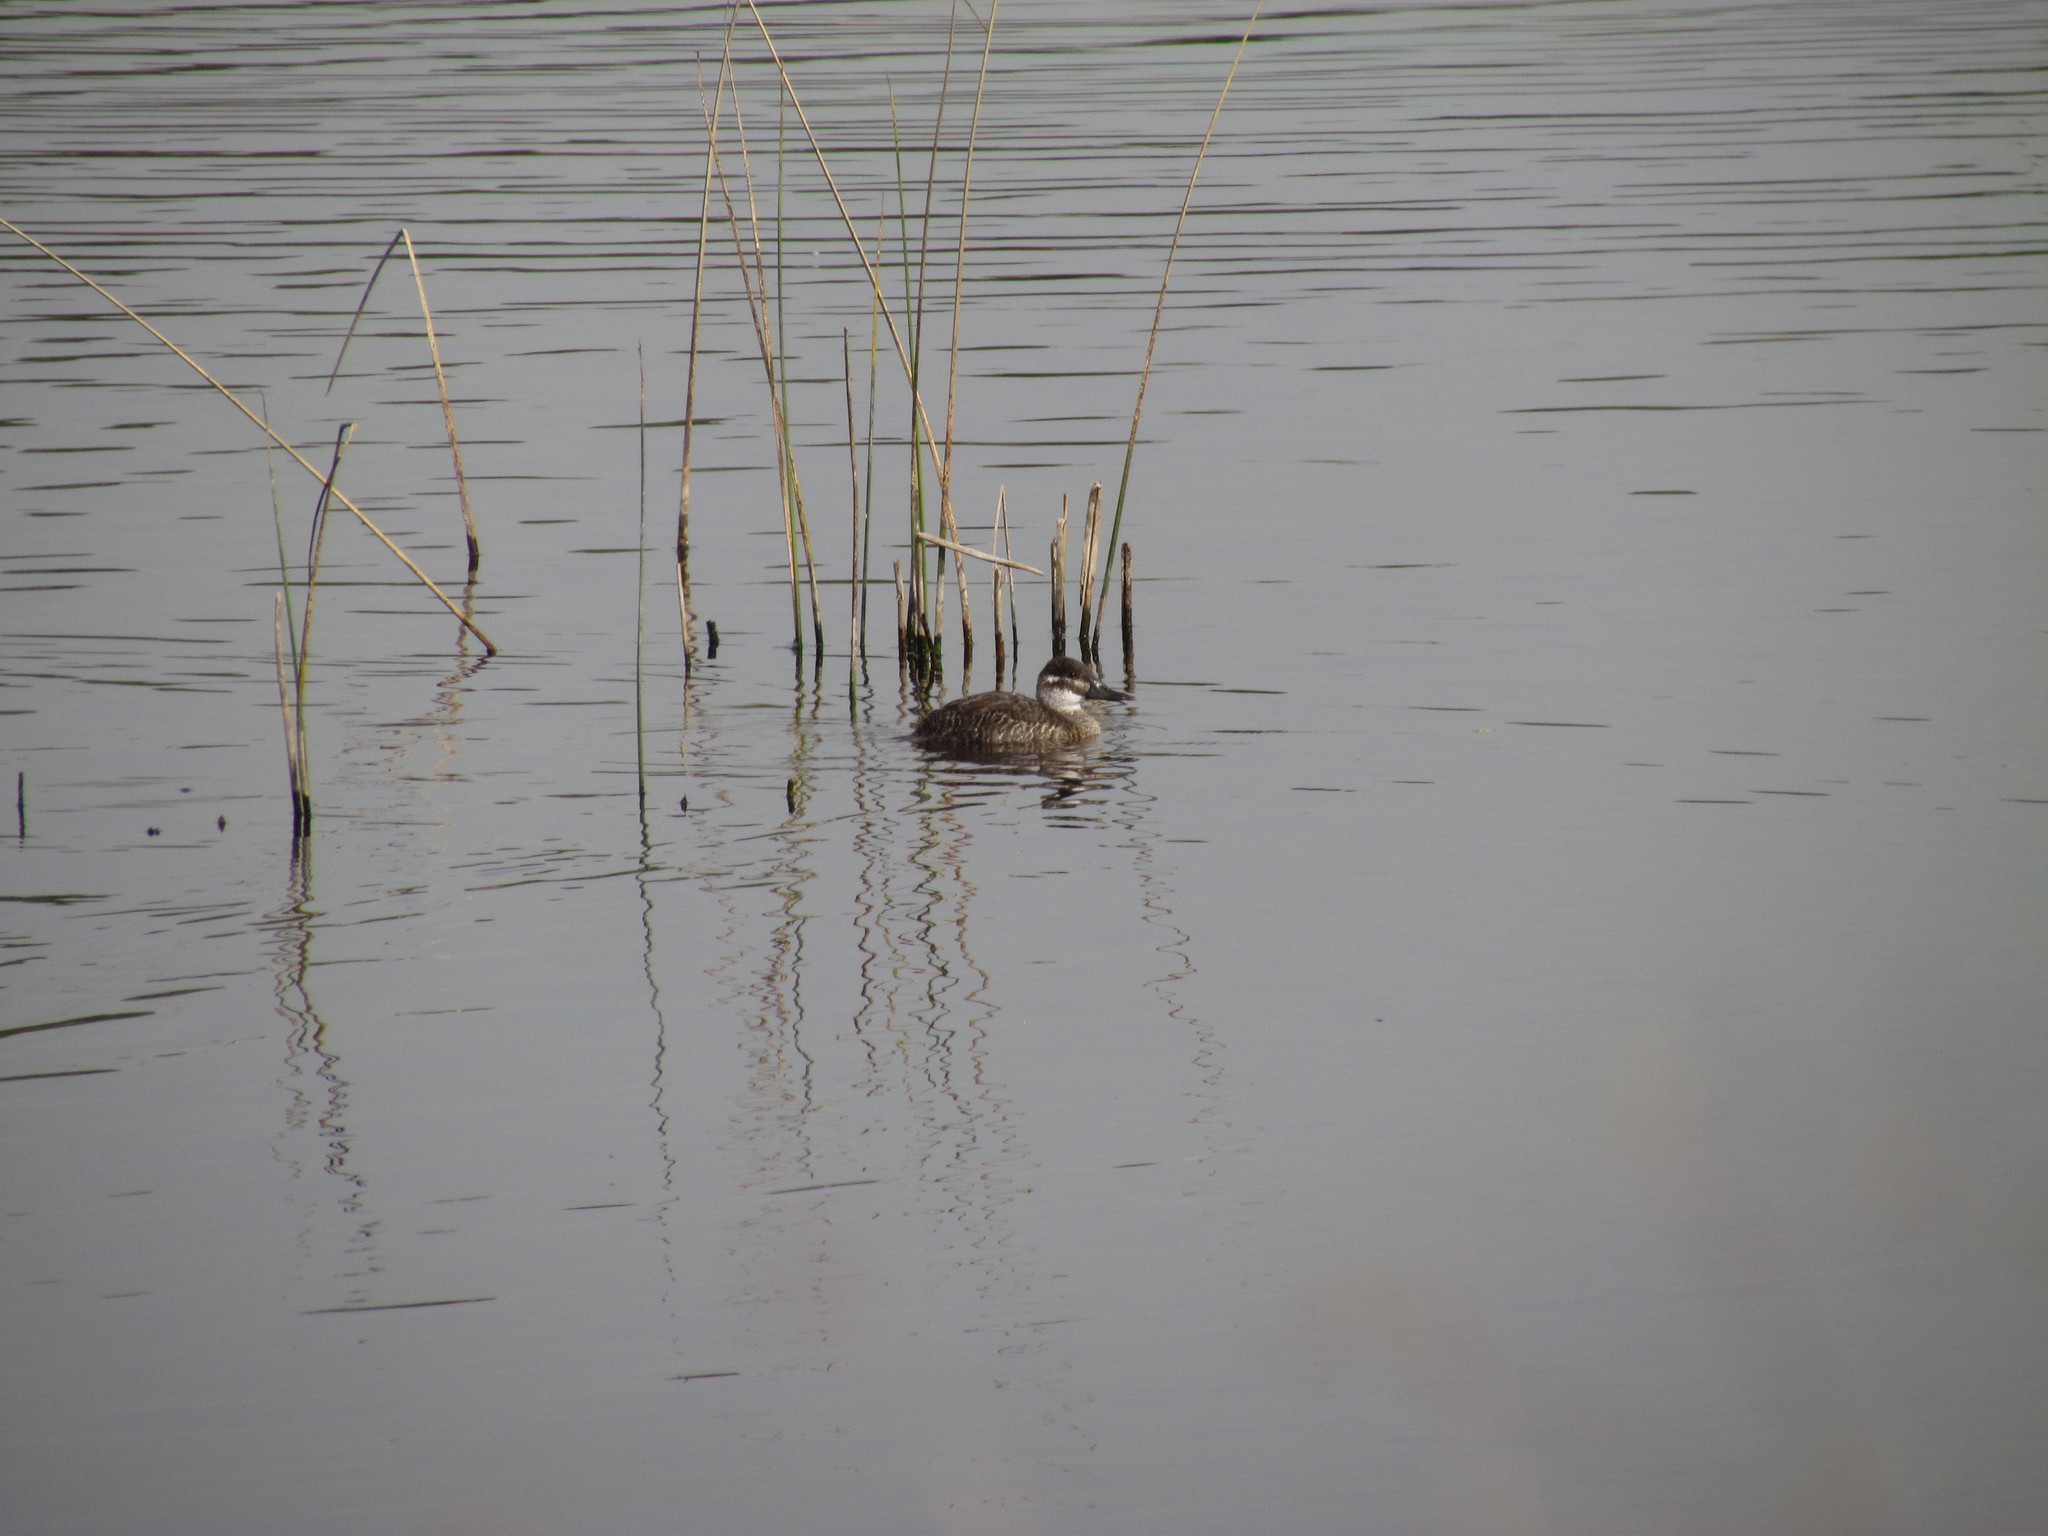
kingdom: Animalia
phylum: Chordata
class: Aves
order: Anseriformes
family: Anatidae
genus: Oxyura
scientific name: Oxyura vittata
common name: Lake duck
